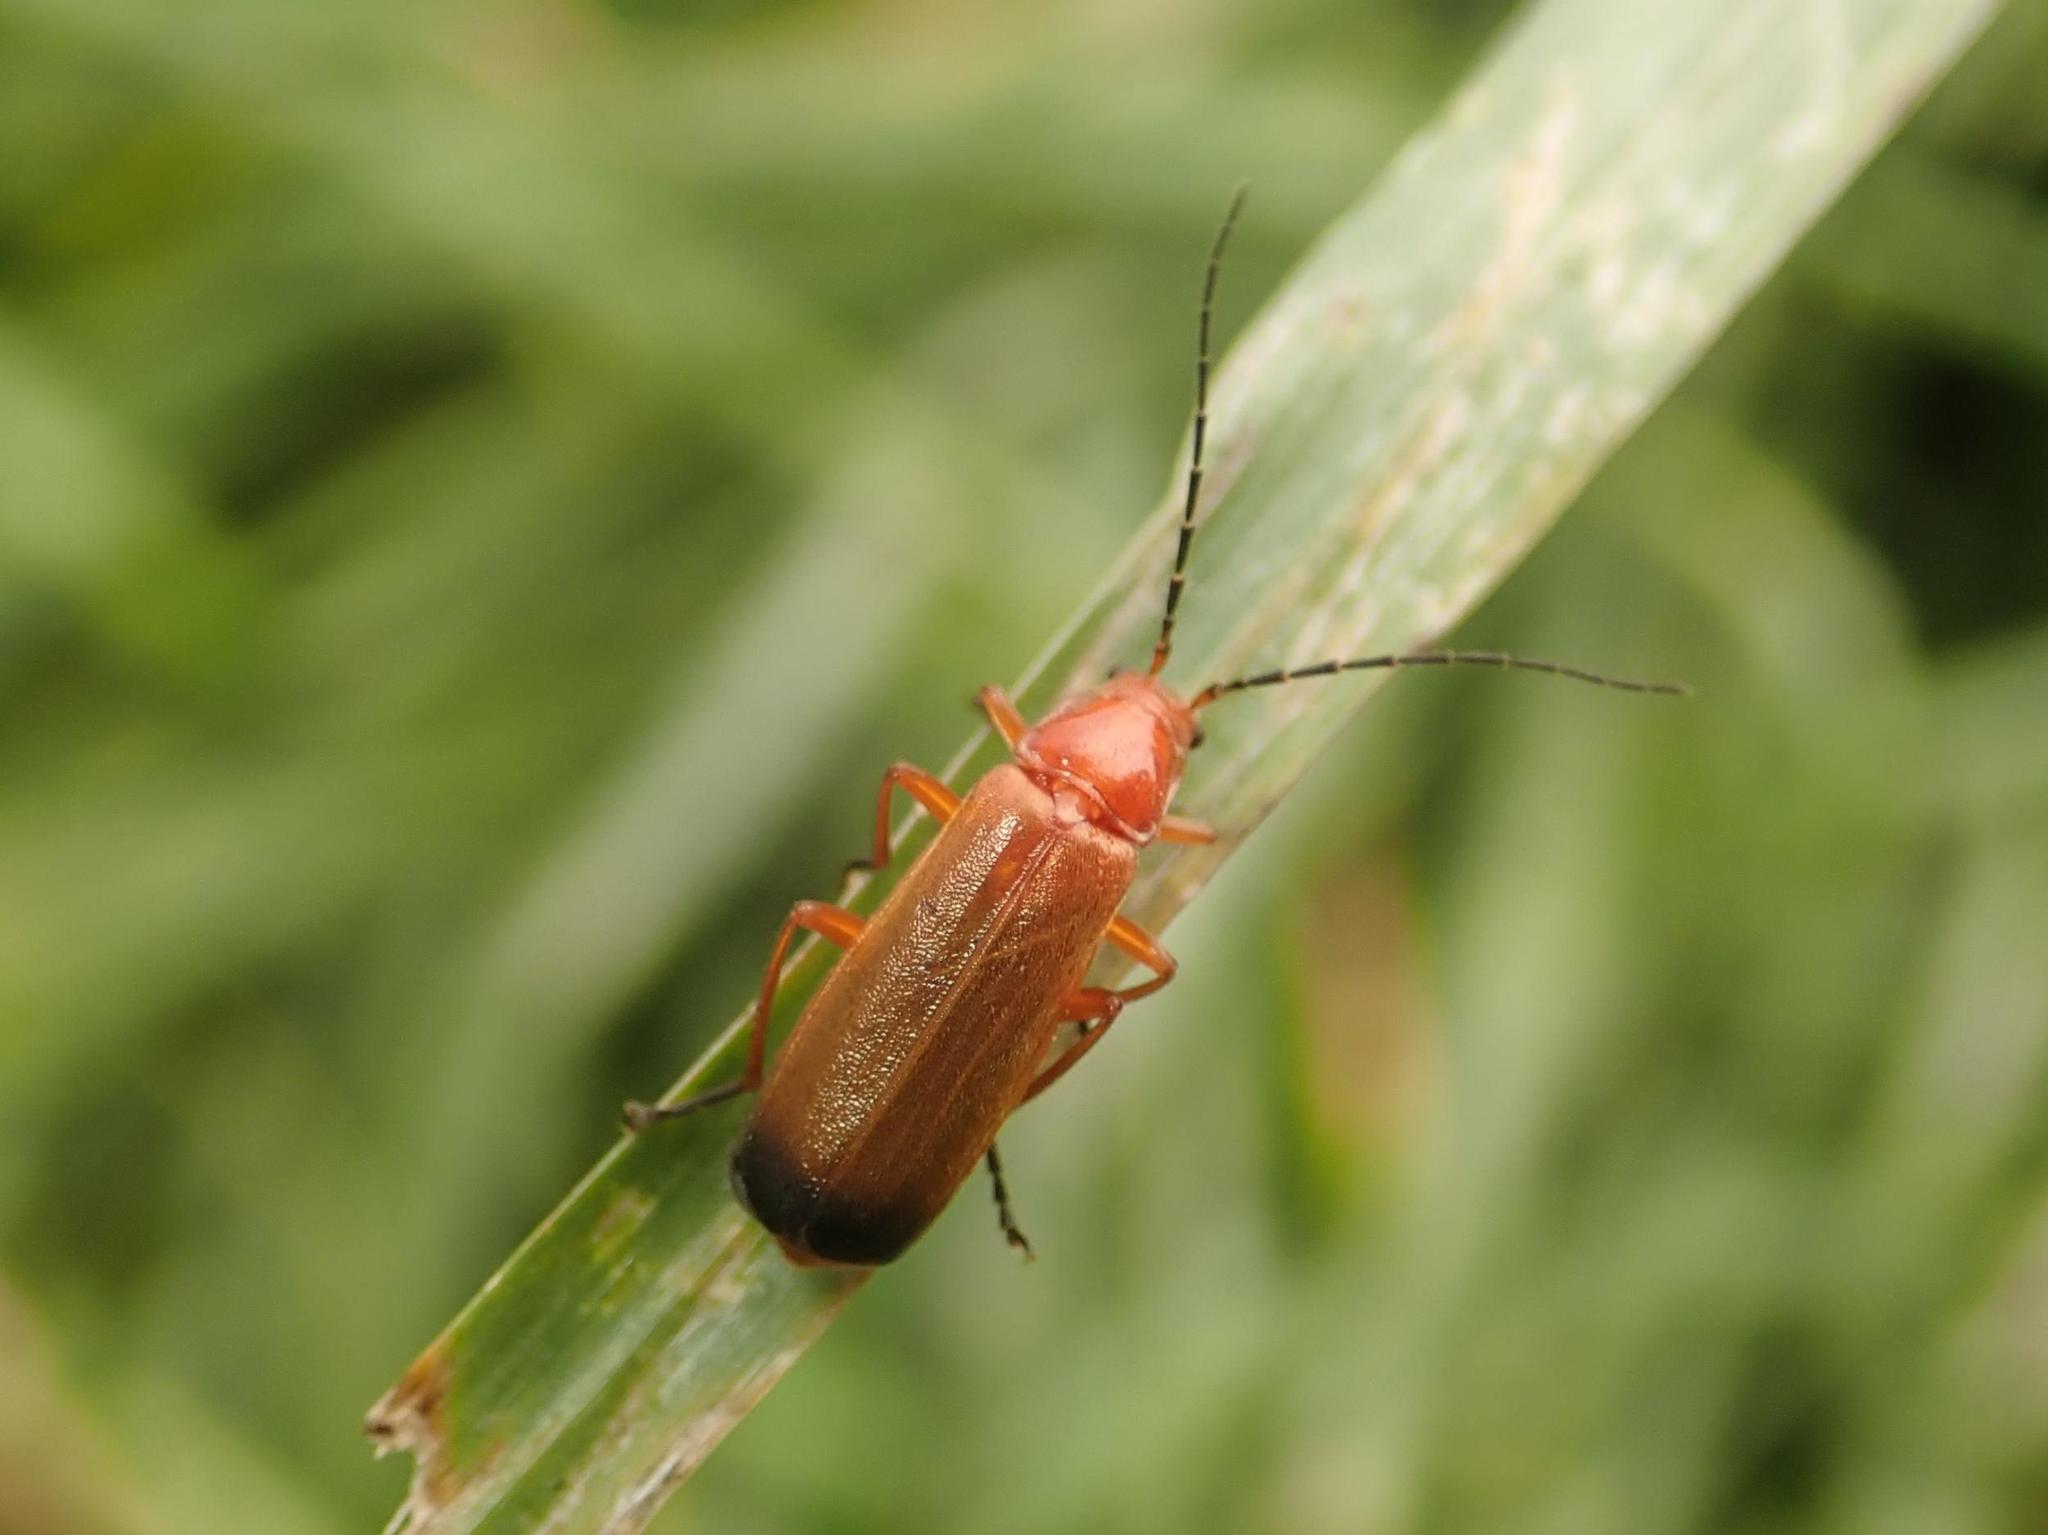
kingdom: Animalia
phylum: Arthropoda
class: Insecta
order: Coleoptera
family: Cantharidae
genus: Rhagonycha
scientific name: Rhagonycha fulva
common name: Common red soldier beetle
